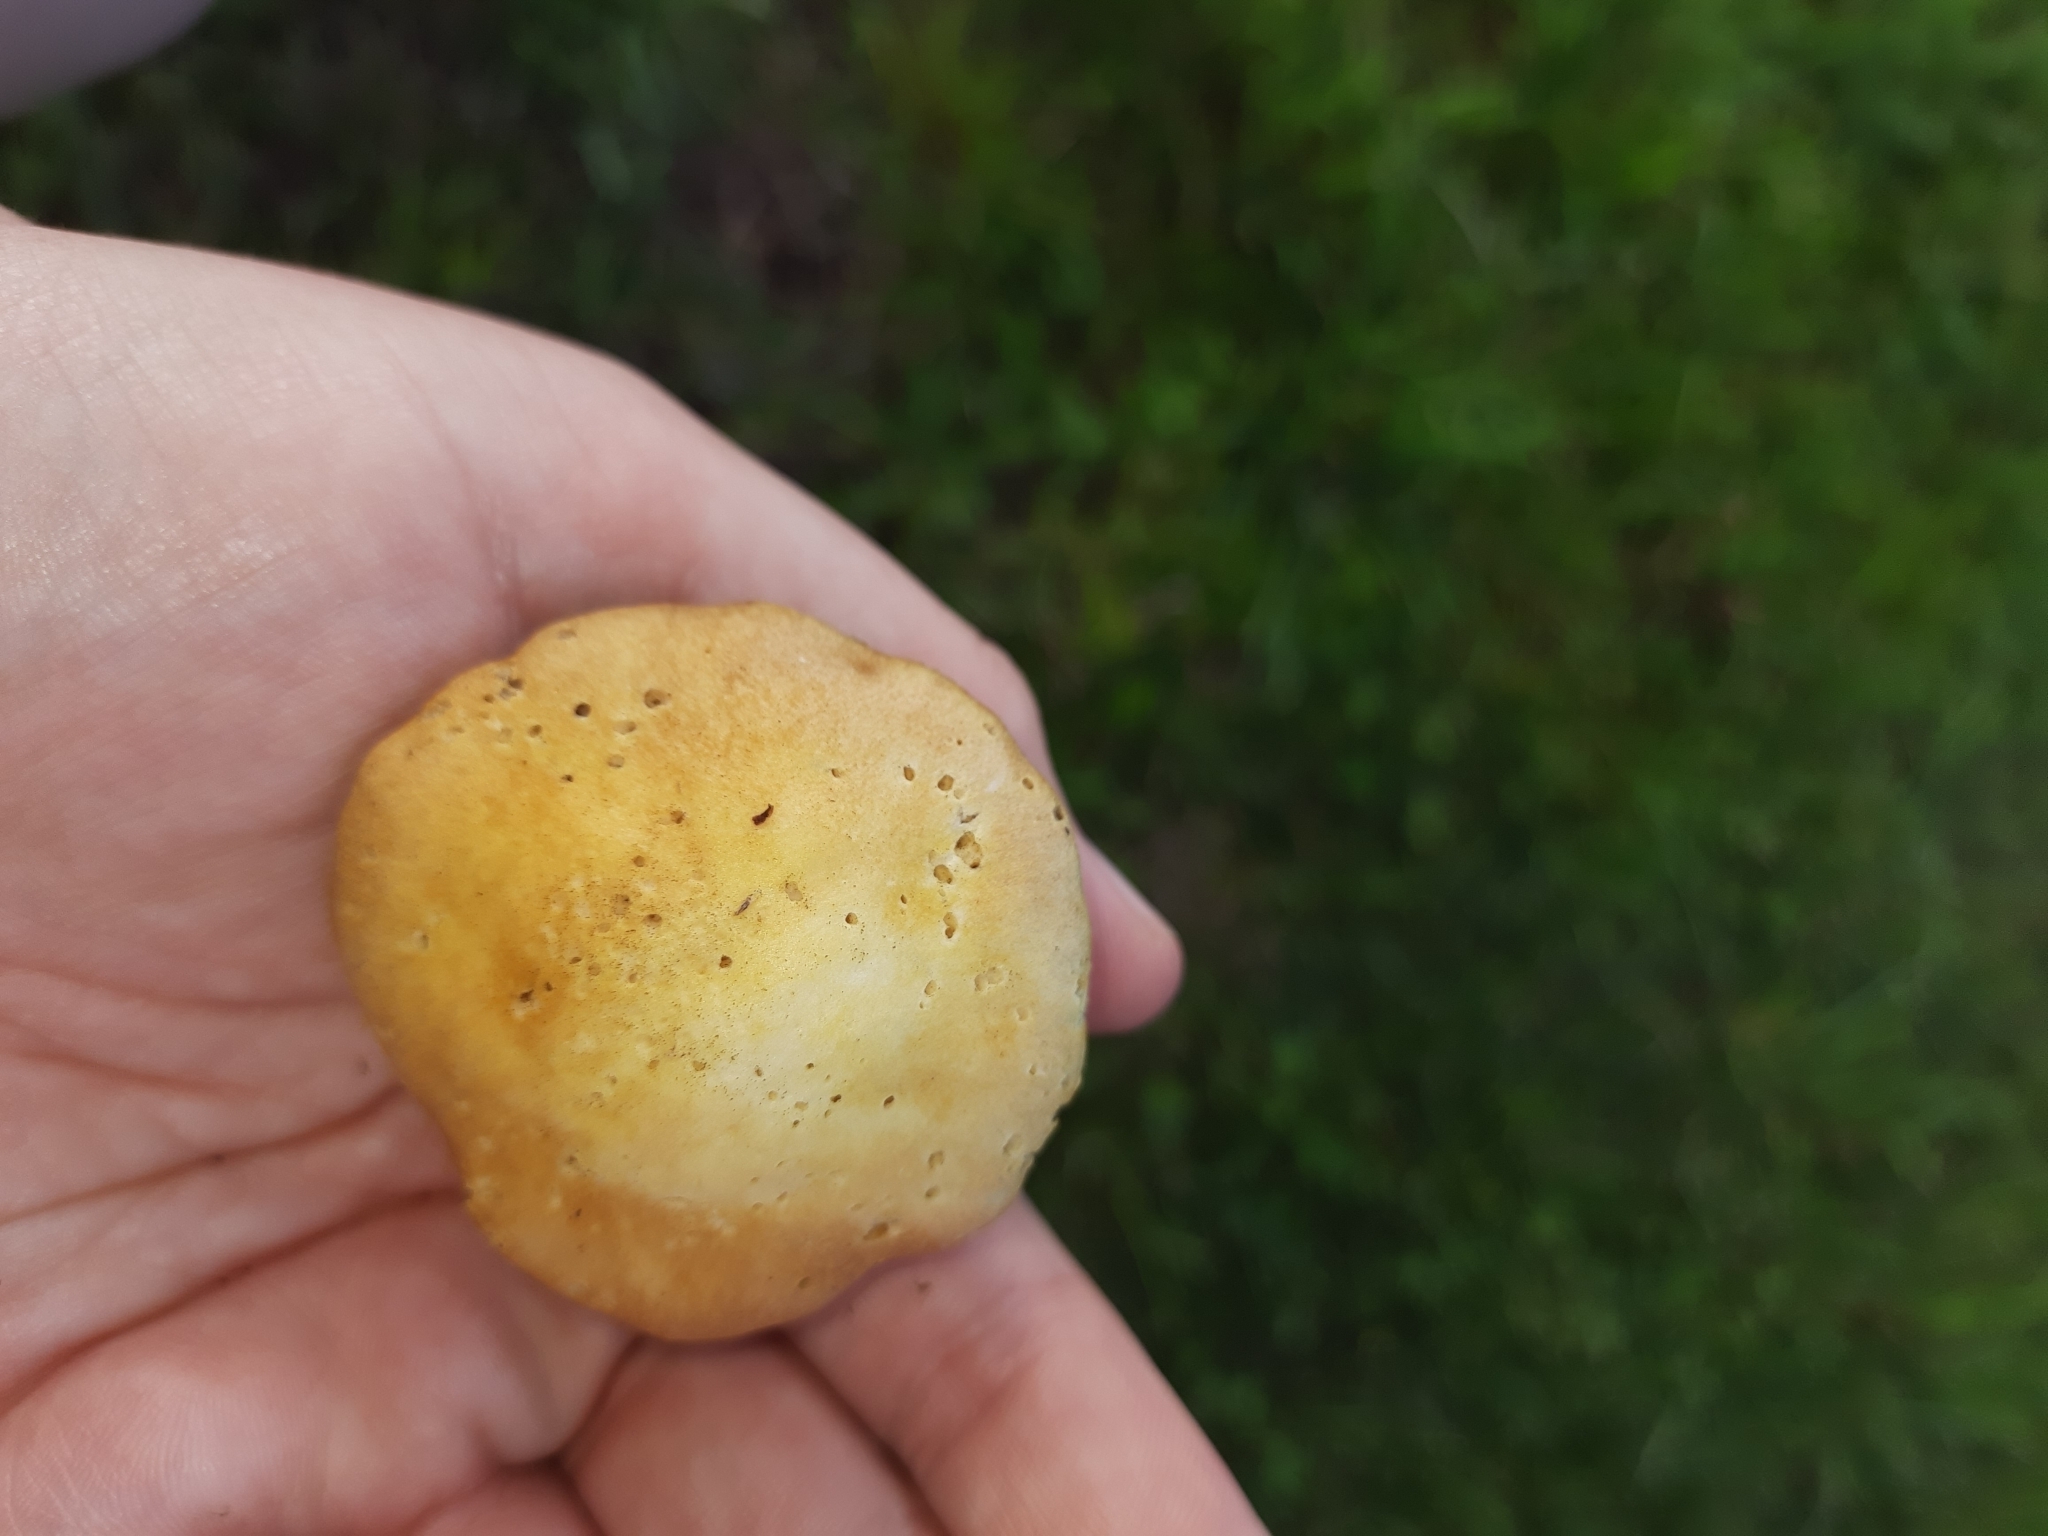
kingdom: Fungi
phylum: Basidiomycota
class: Agaricomycetes
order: Agaricales
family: Hymenogastraceae
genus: Psilocybe
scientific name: Psilocybe coronilla
